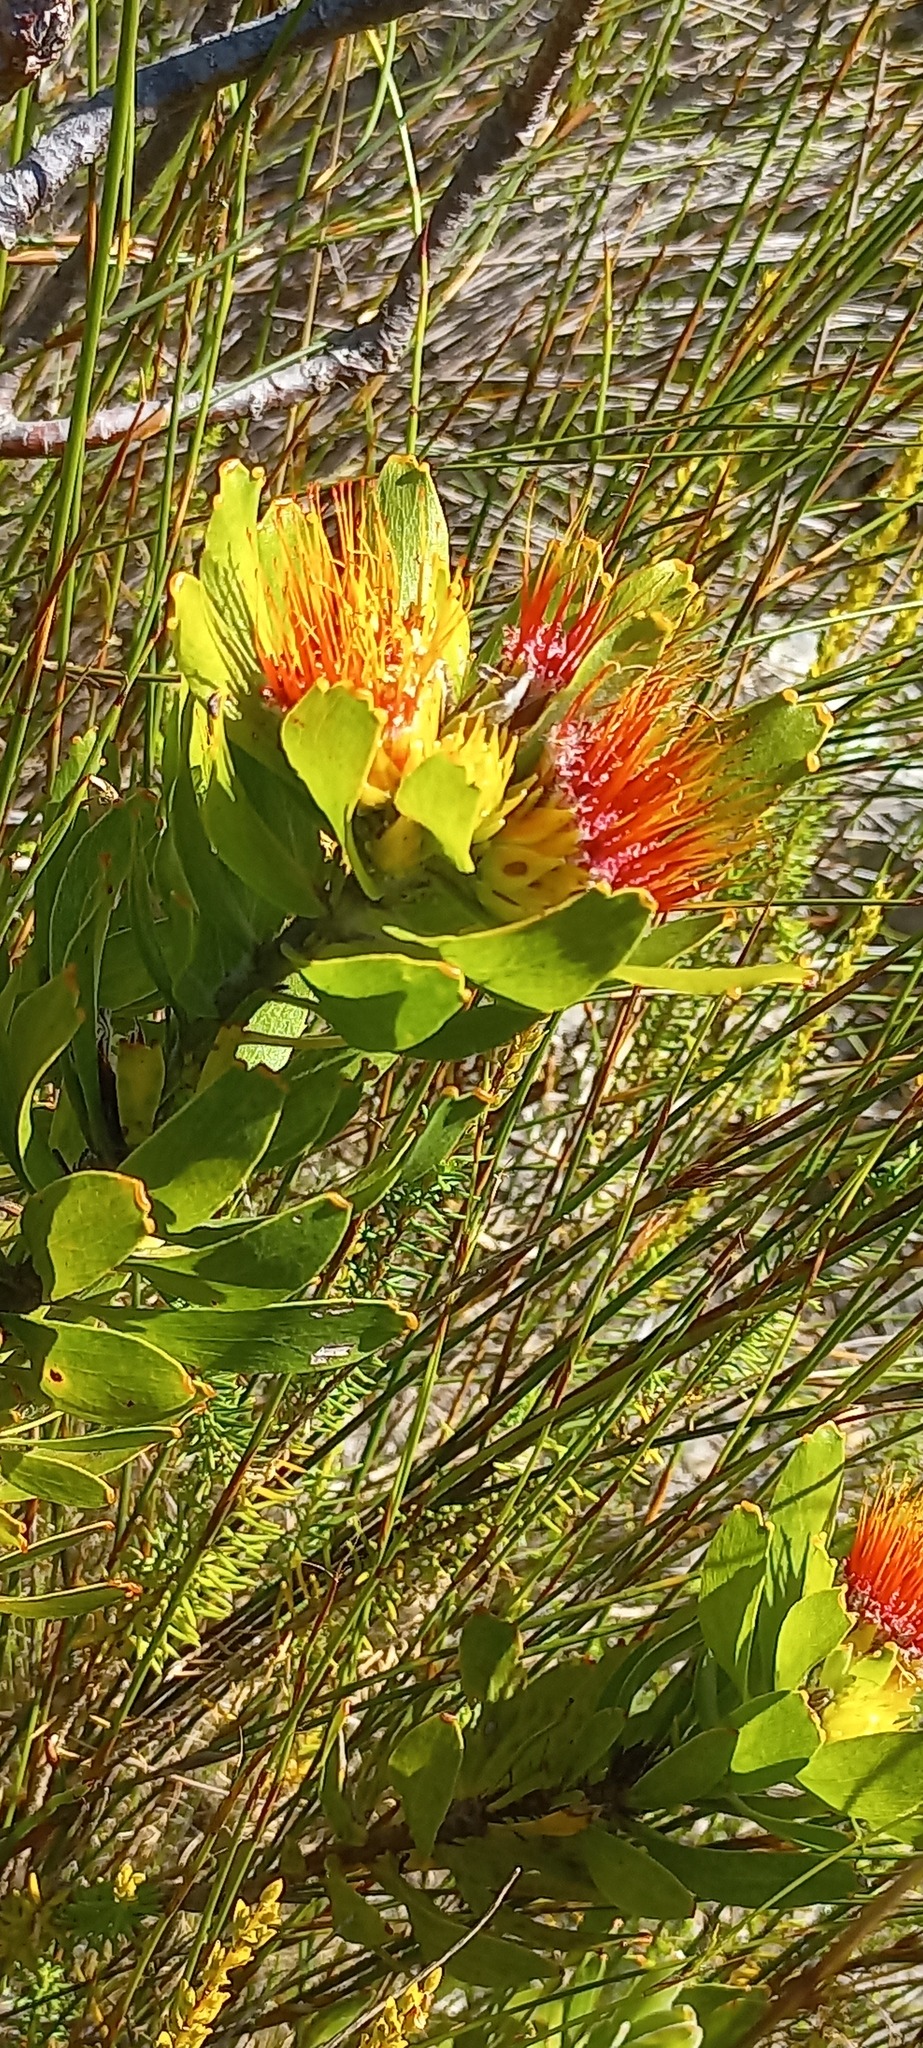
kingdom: Plantae
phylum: Tracheophyta
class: Magnoliopsida
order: Proteales
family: Proteaceae
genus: Leucospermum
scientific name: Leucospermum oleifolium
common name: Matches
